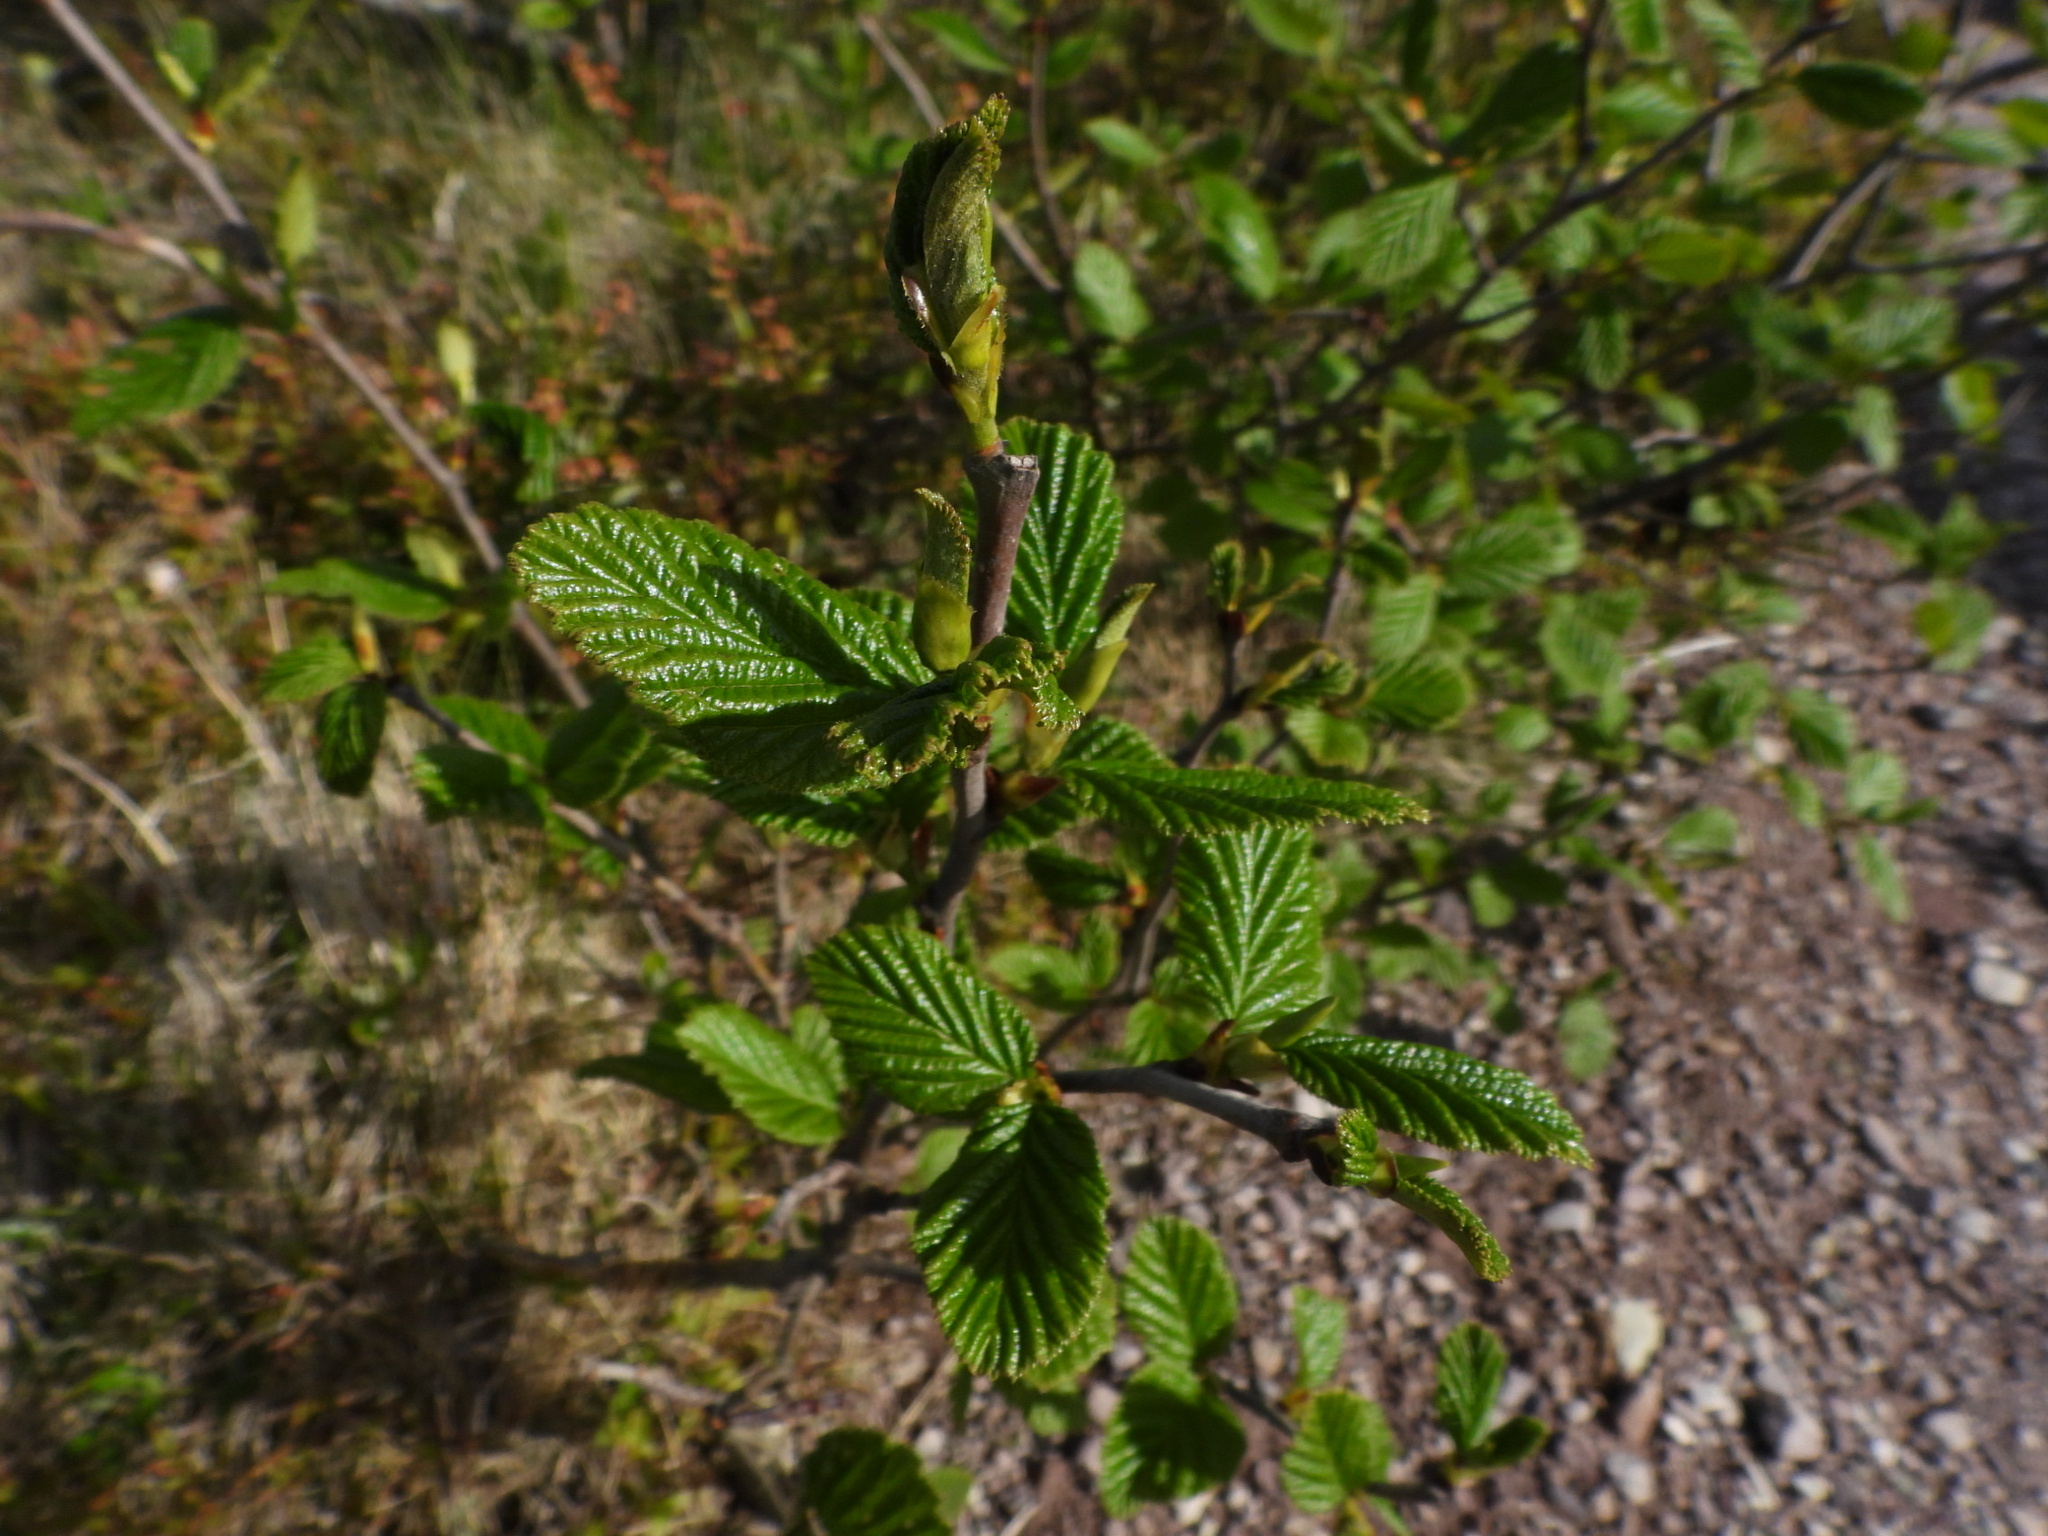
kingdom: Plantae
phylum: Tracheophyta
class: Magnoliopsida
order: Fagales
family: Betulaceae
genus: Alnus
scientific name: Alnus alnobetula
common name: Green alder
